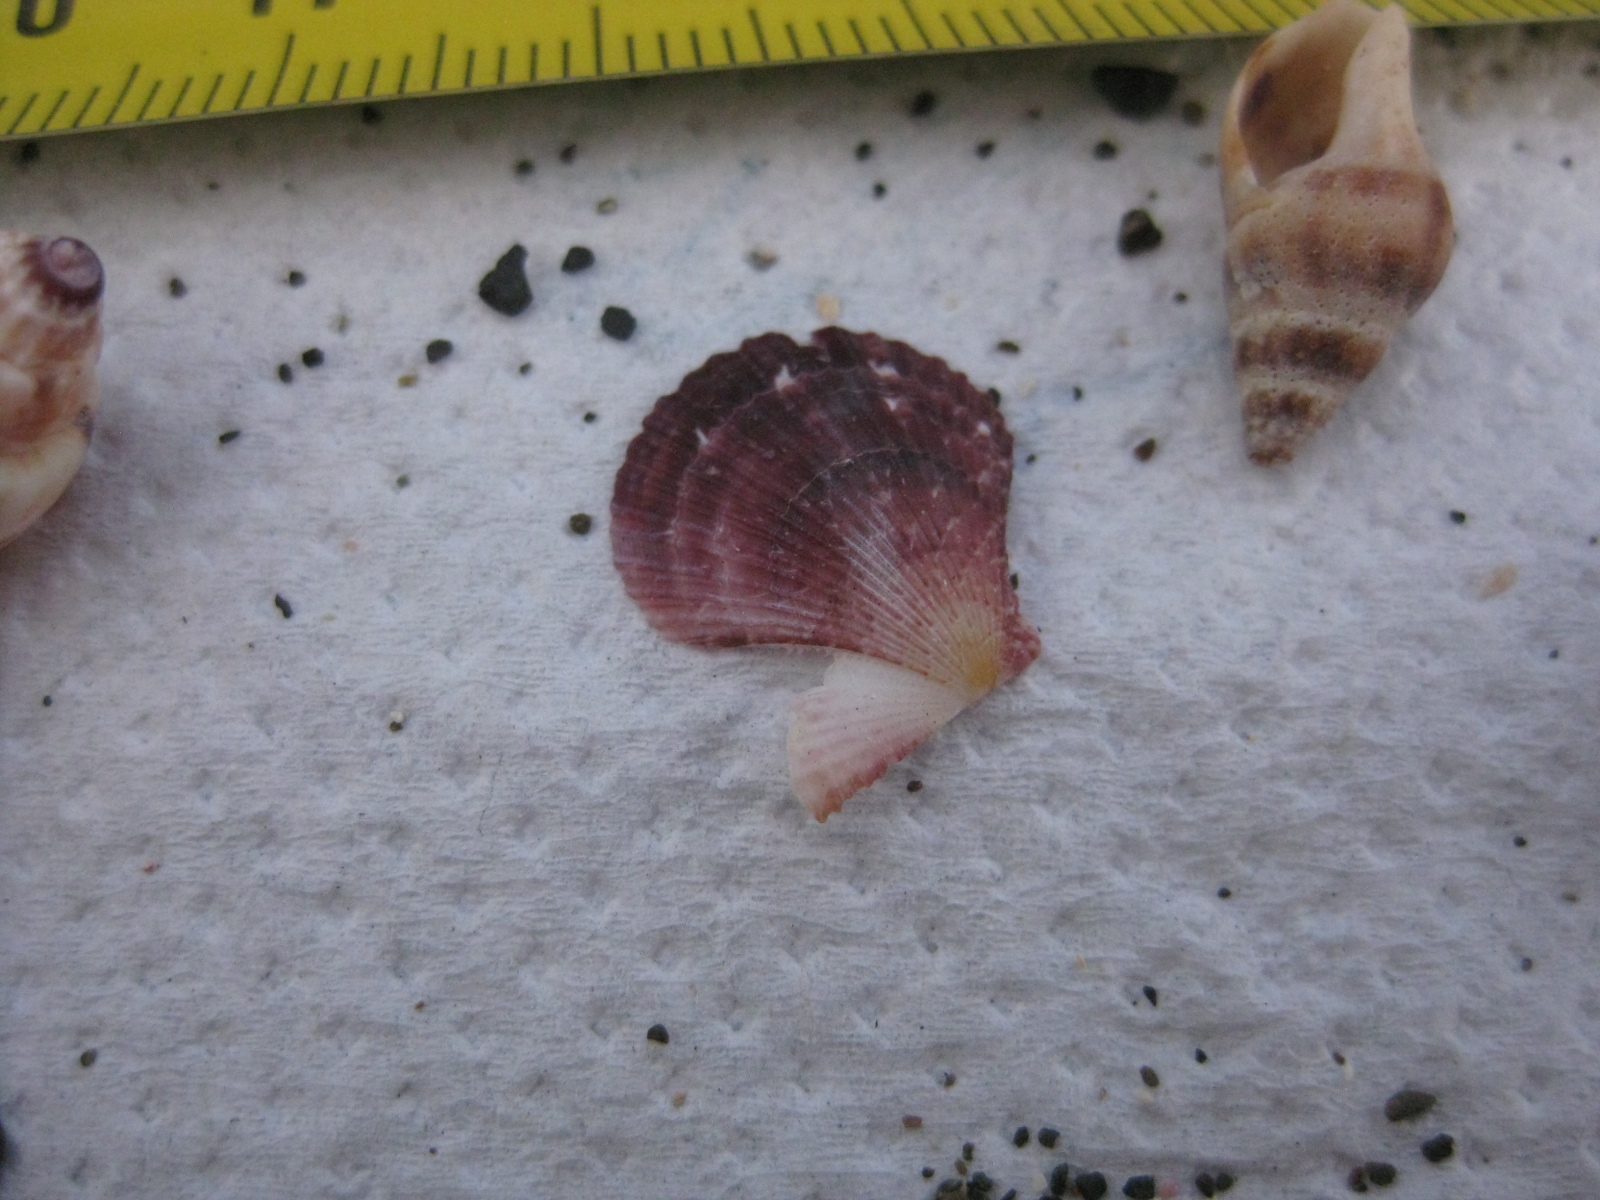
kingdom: Animalia
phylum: Mollusca
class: Bivalvia
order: Pectinida
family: Pectinidae
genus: Talochlamys
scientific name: Talochlamys zelandiae
